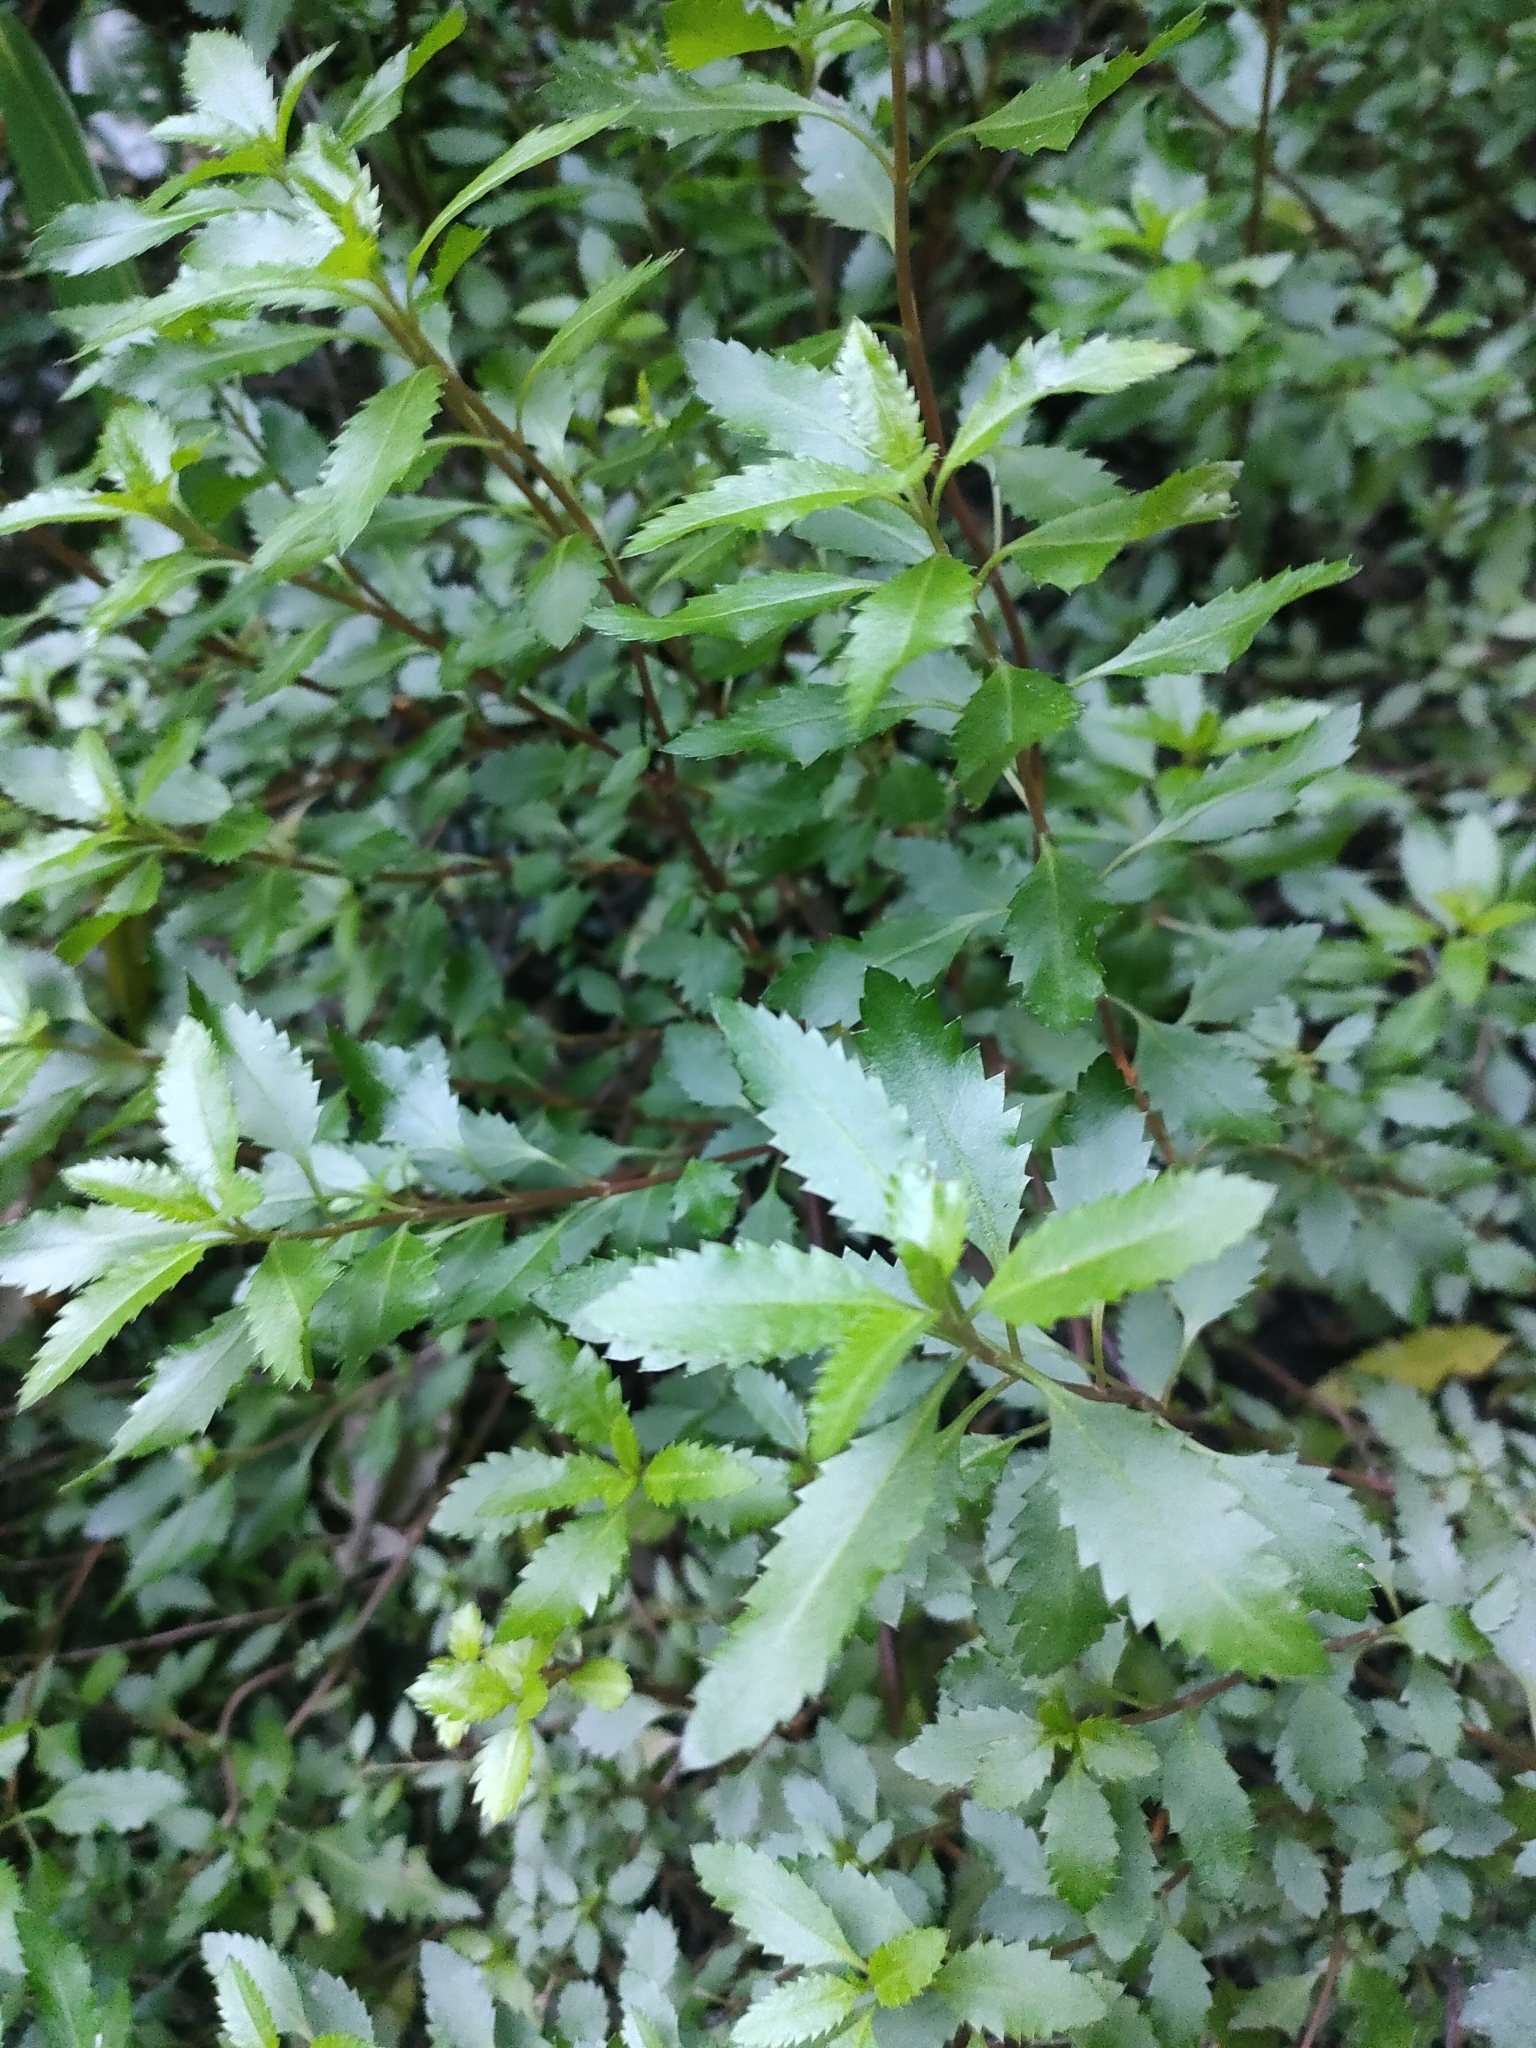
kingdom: Plantae
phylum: Tracheophyta
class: Magnoliopsida
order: Saxifragales
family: Haloragaceae
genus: Haloragis
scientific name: Haloragis erecta
